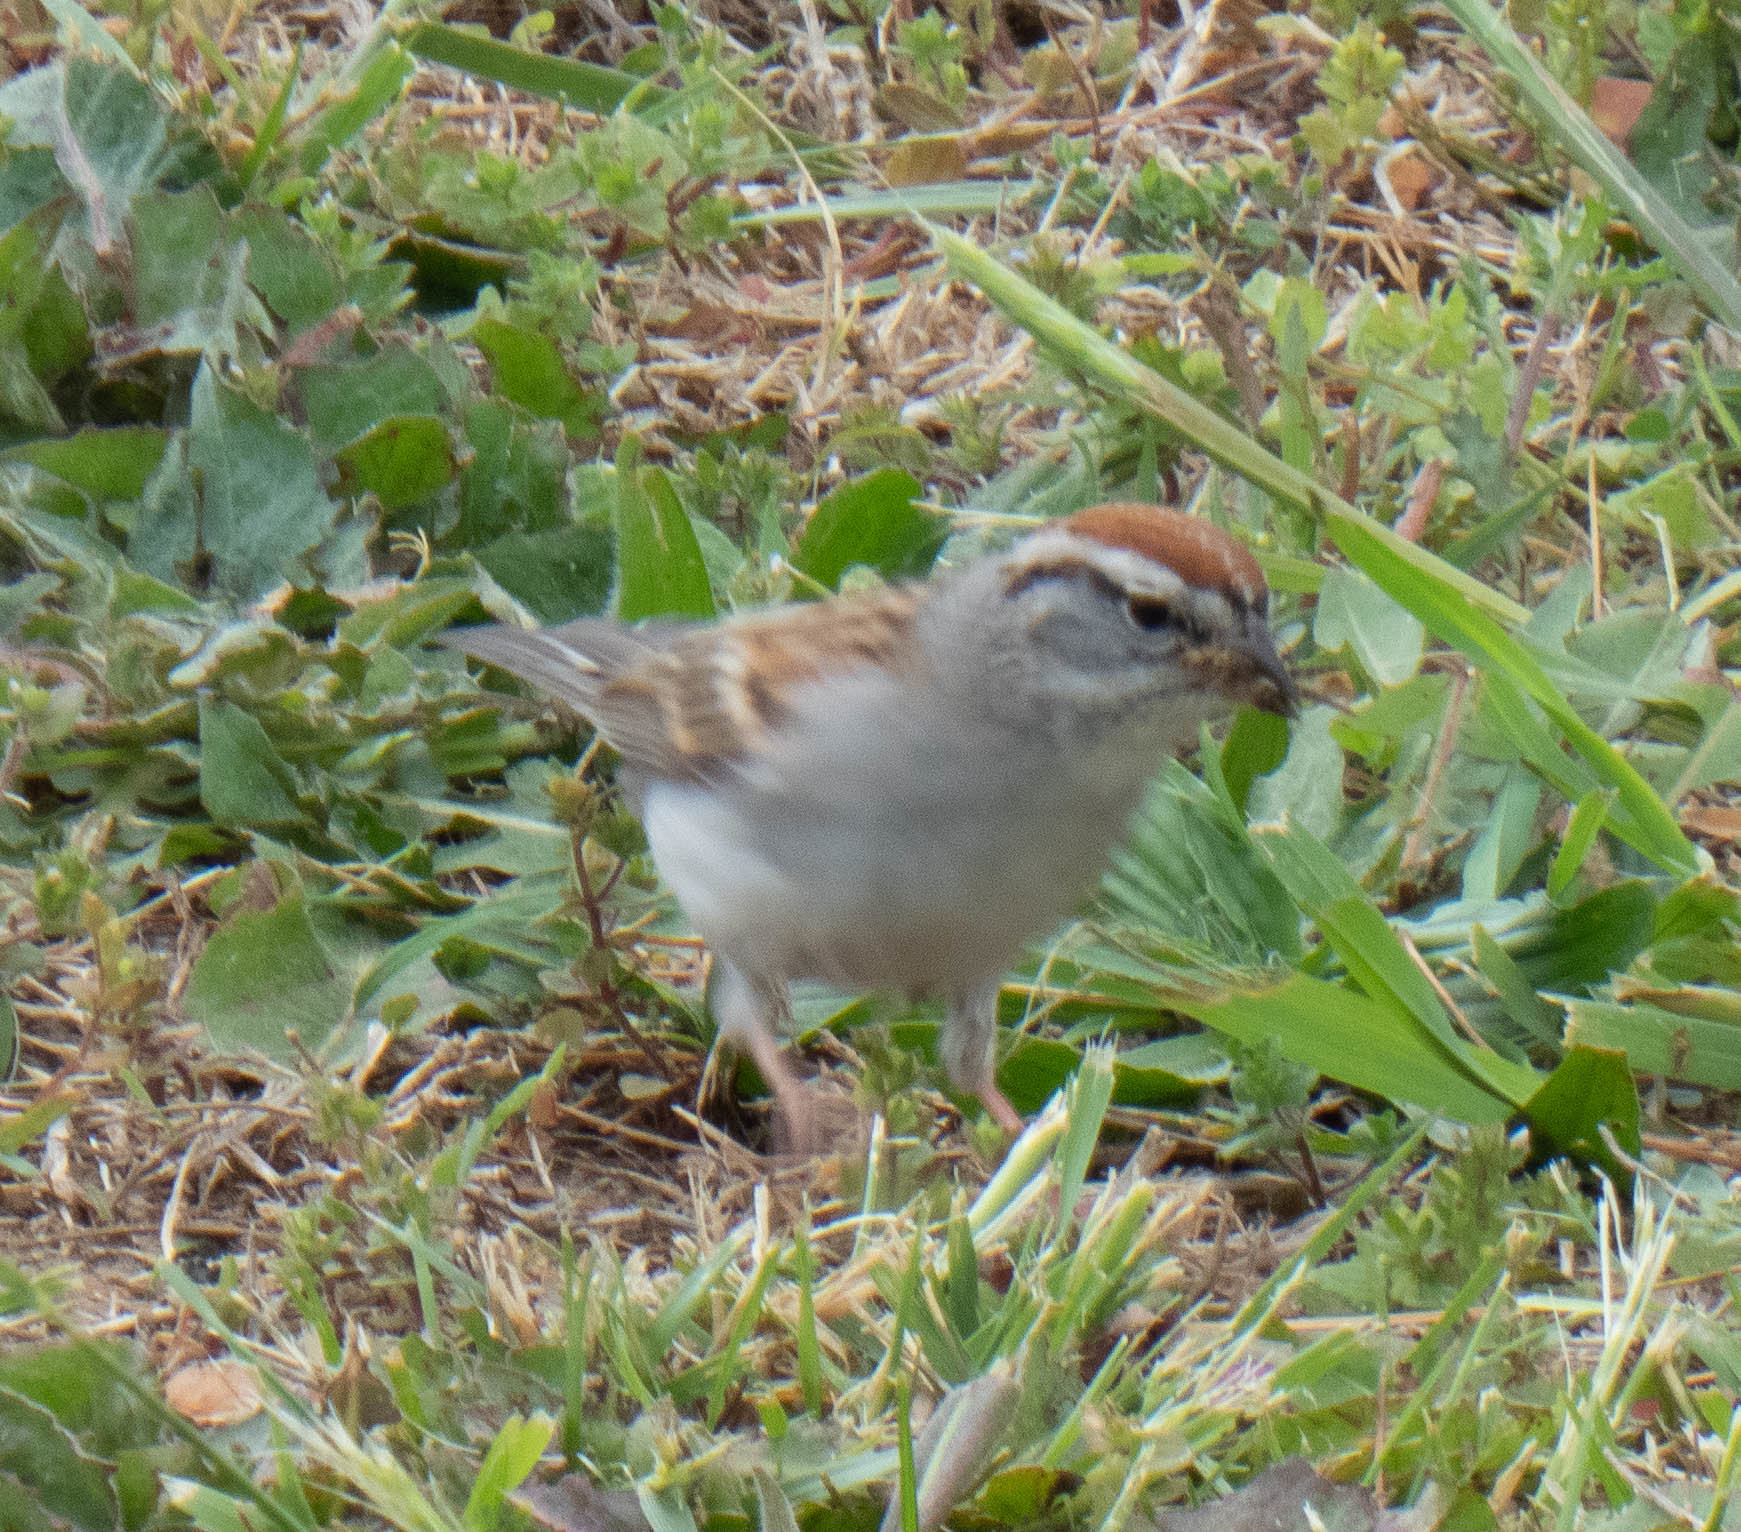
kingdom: Animalia
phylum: Chordata
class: Aves
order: Passeriformes
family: Passerellidae
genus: Spizella
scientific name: Spizella passerina
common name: Chipping sparrow
